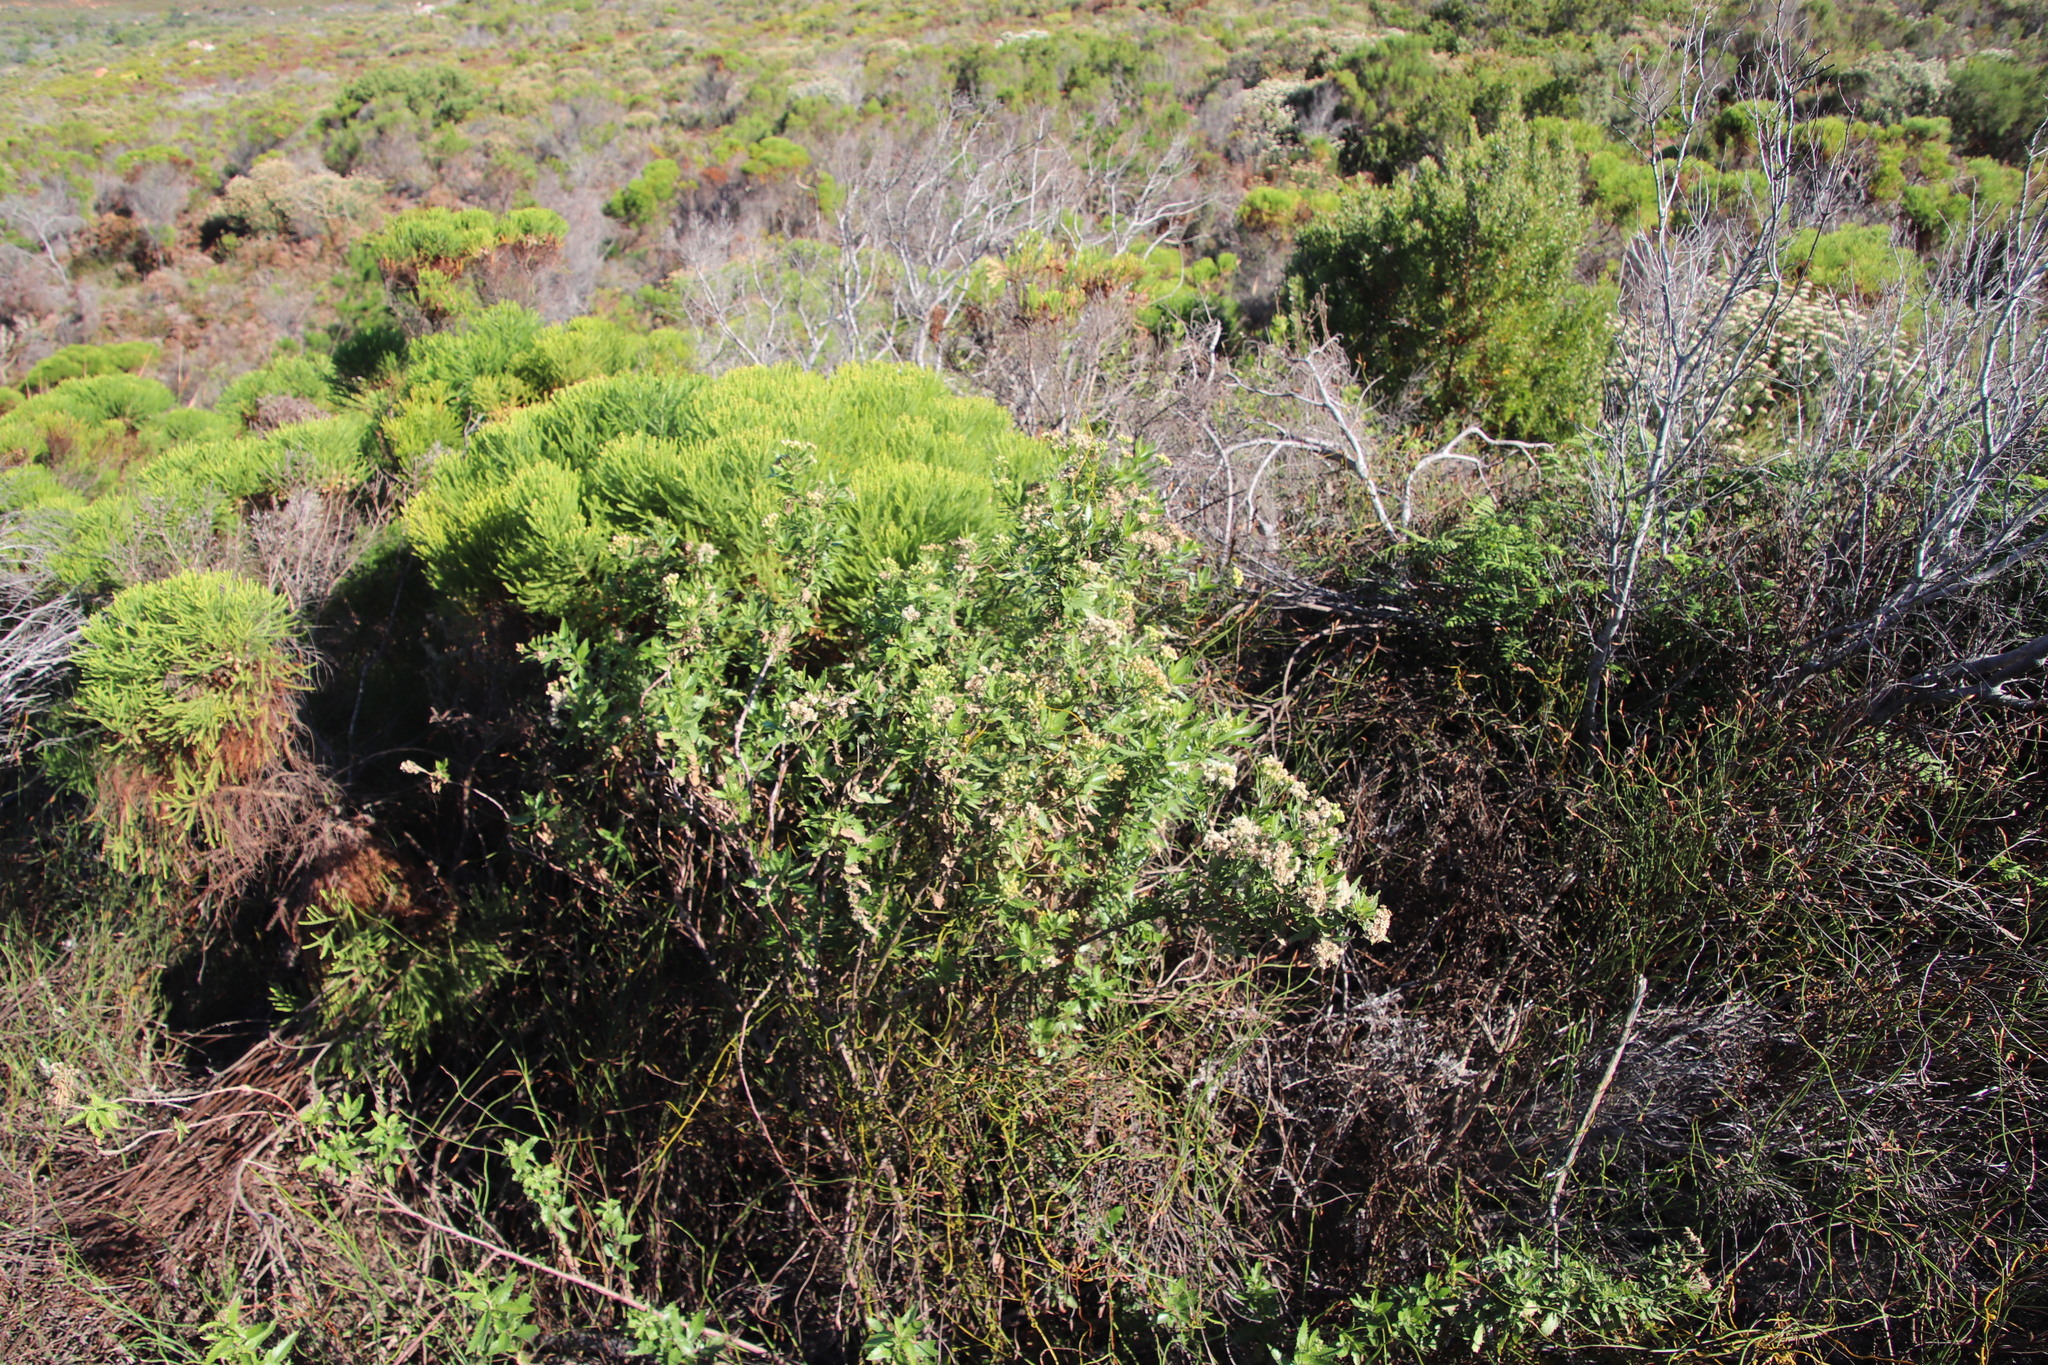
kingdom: Plantae
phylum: Tracheophyta
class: Magnoliopsida
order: Asterales
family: Asteraceae
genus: Nidorella
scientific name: Nidorella ivifolia
